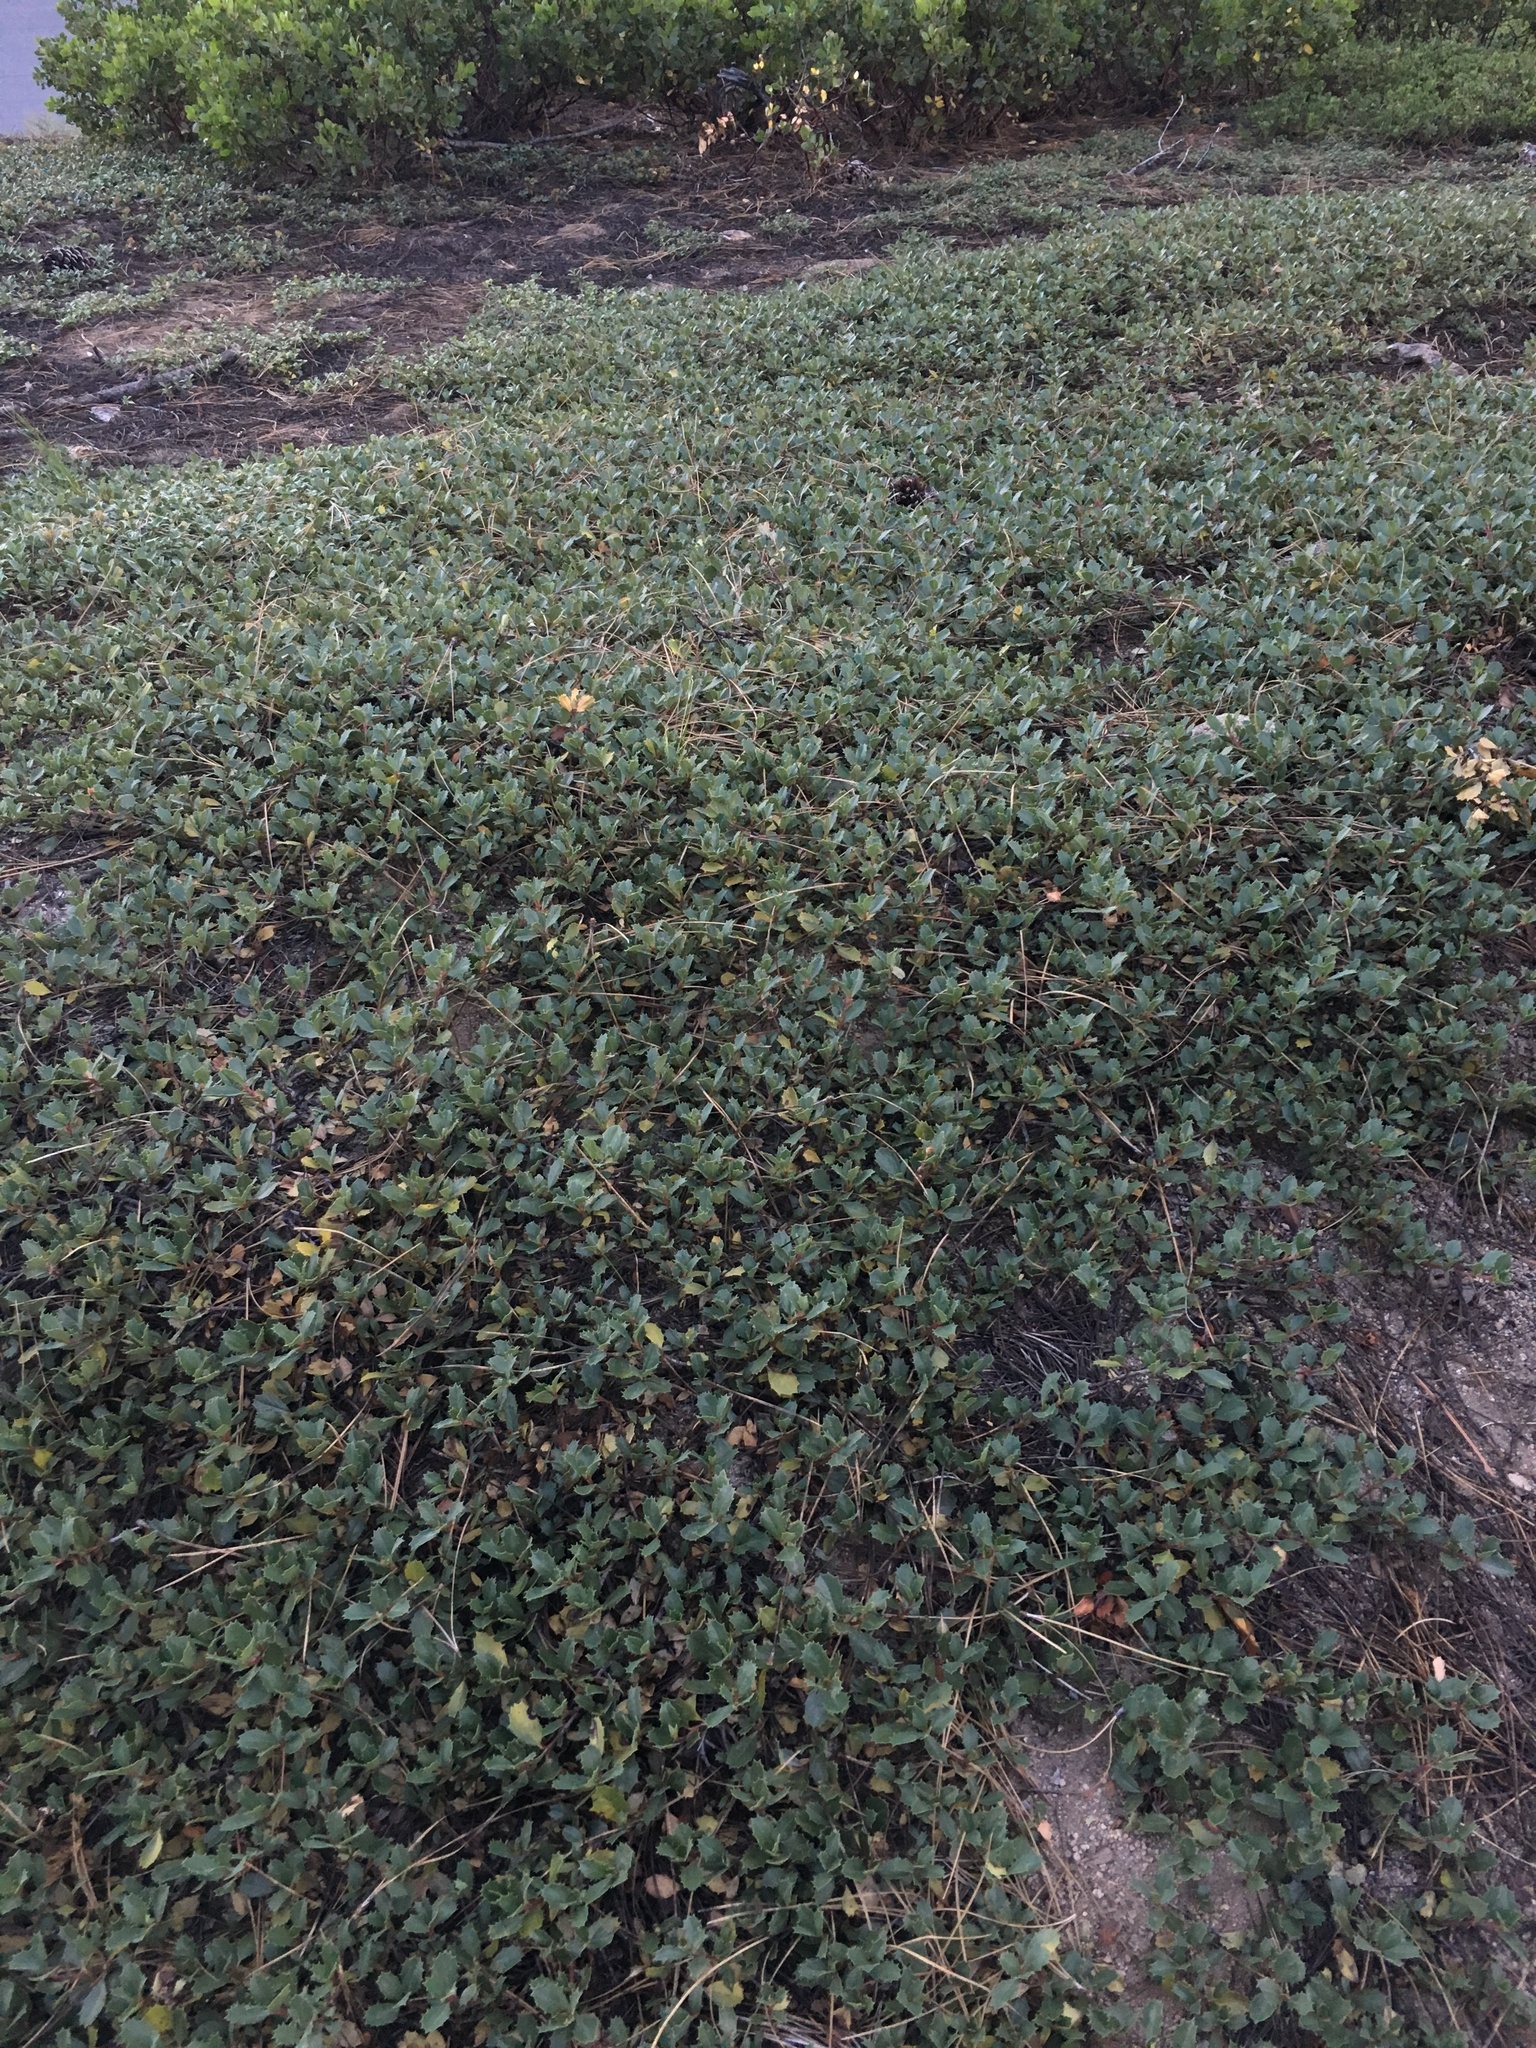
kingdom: Plantae
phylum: Tracheophyta
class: Magnoliopsida
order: Rosales
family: Rhamnaceae
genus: Ceanothus
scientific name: Ceanothus prostratus
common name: Mahala-mat
